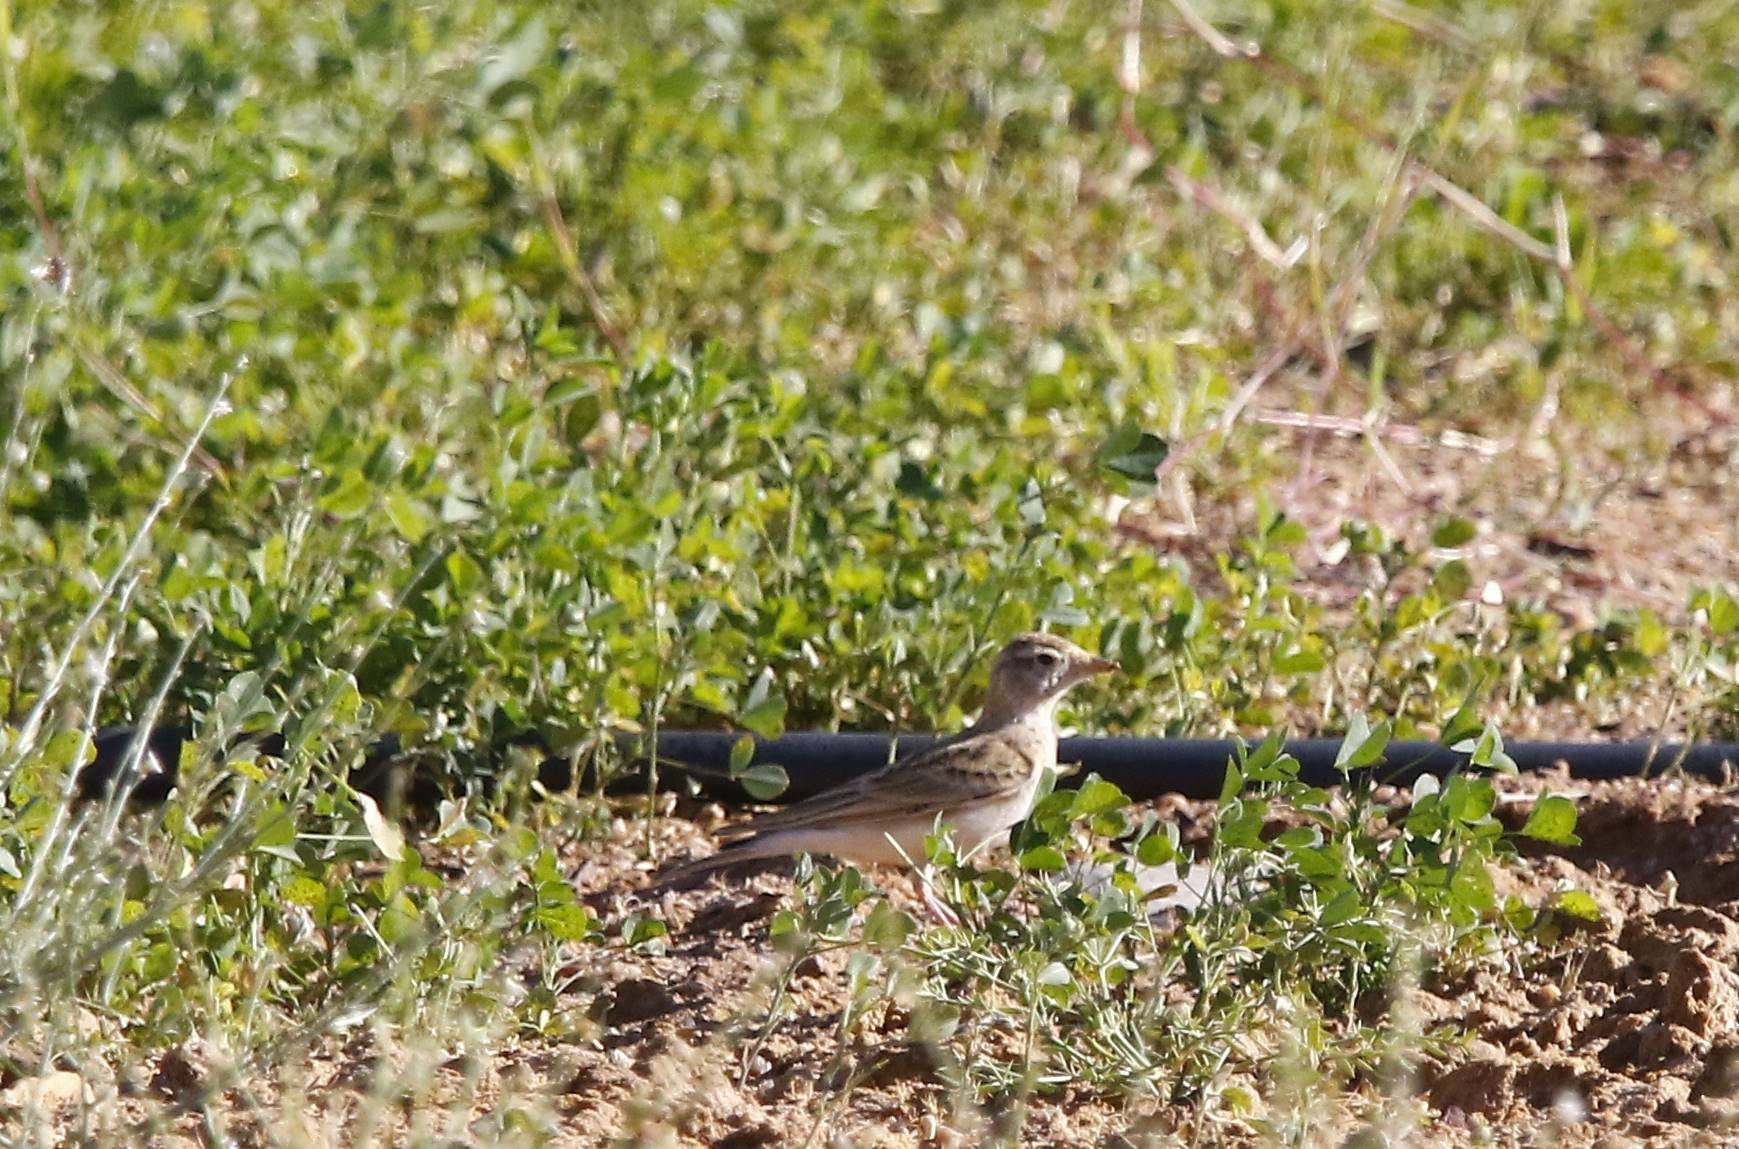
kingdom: Animalia
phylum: Chordata
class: Aves
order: Passeriformes
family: Alaudidae
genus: Calandrella
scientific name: Calandrella brachydactyla
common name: Greater short-toed lark
